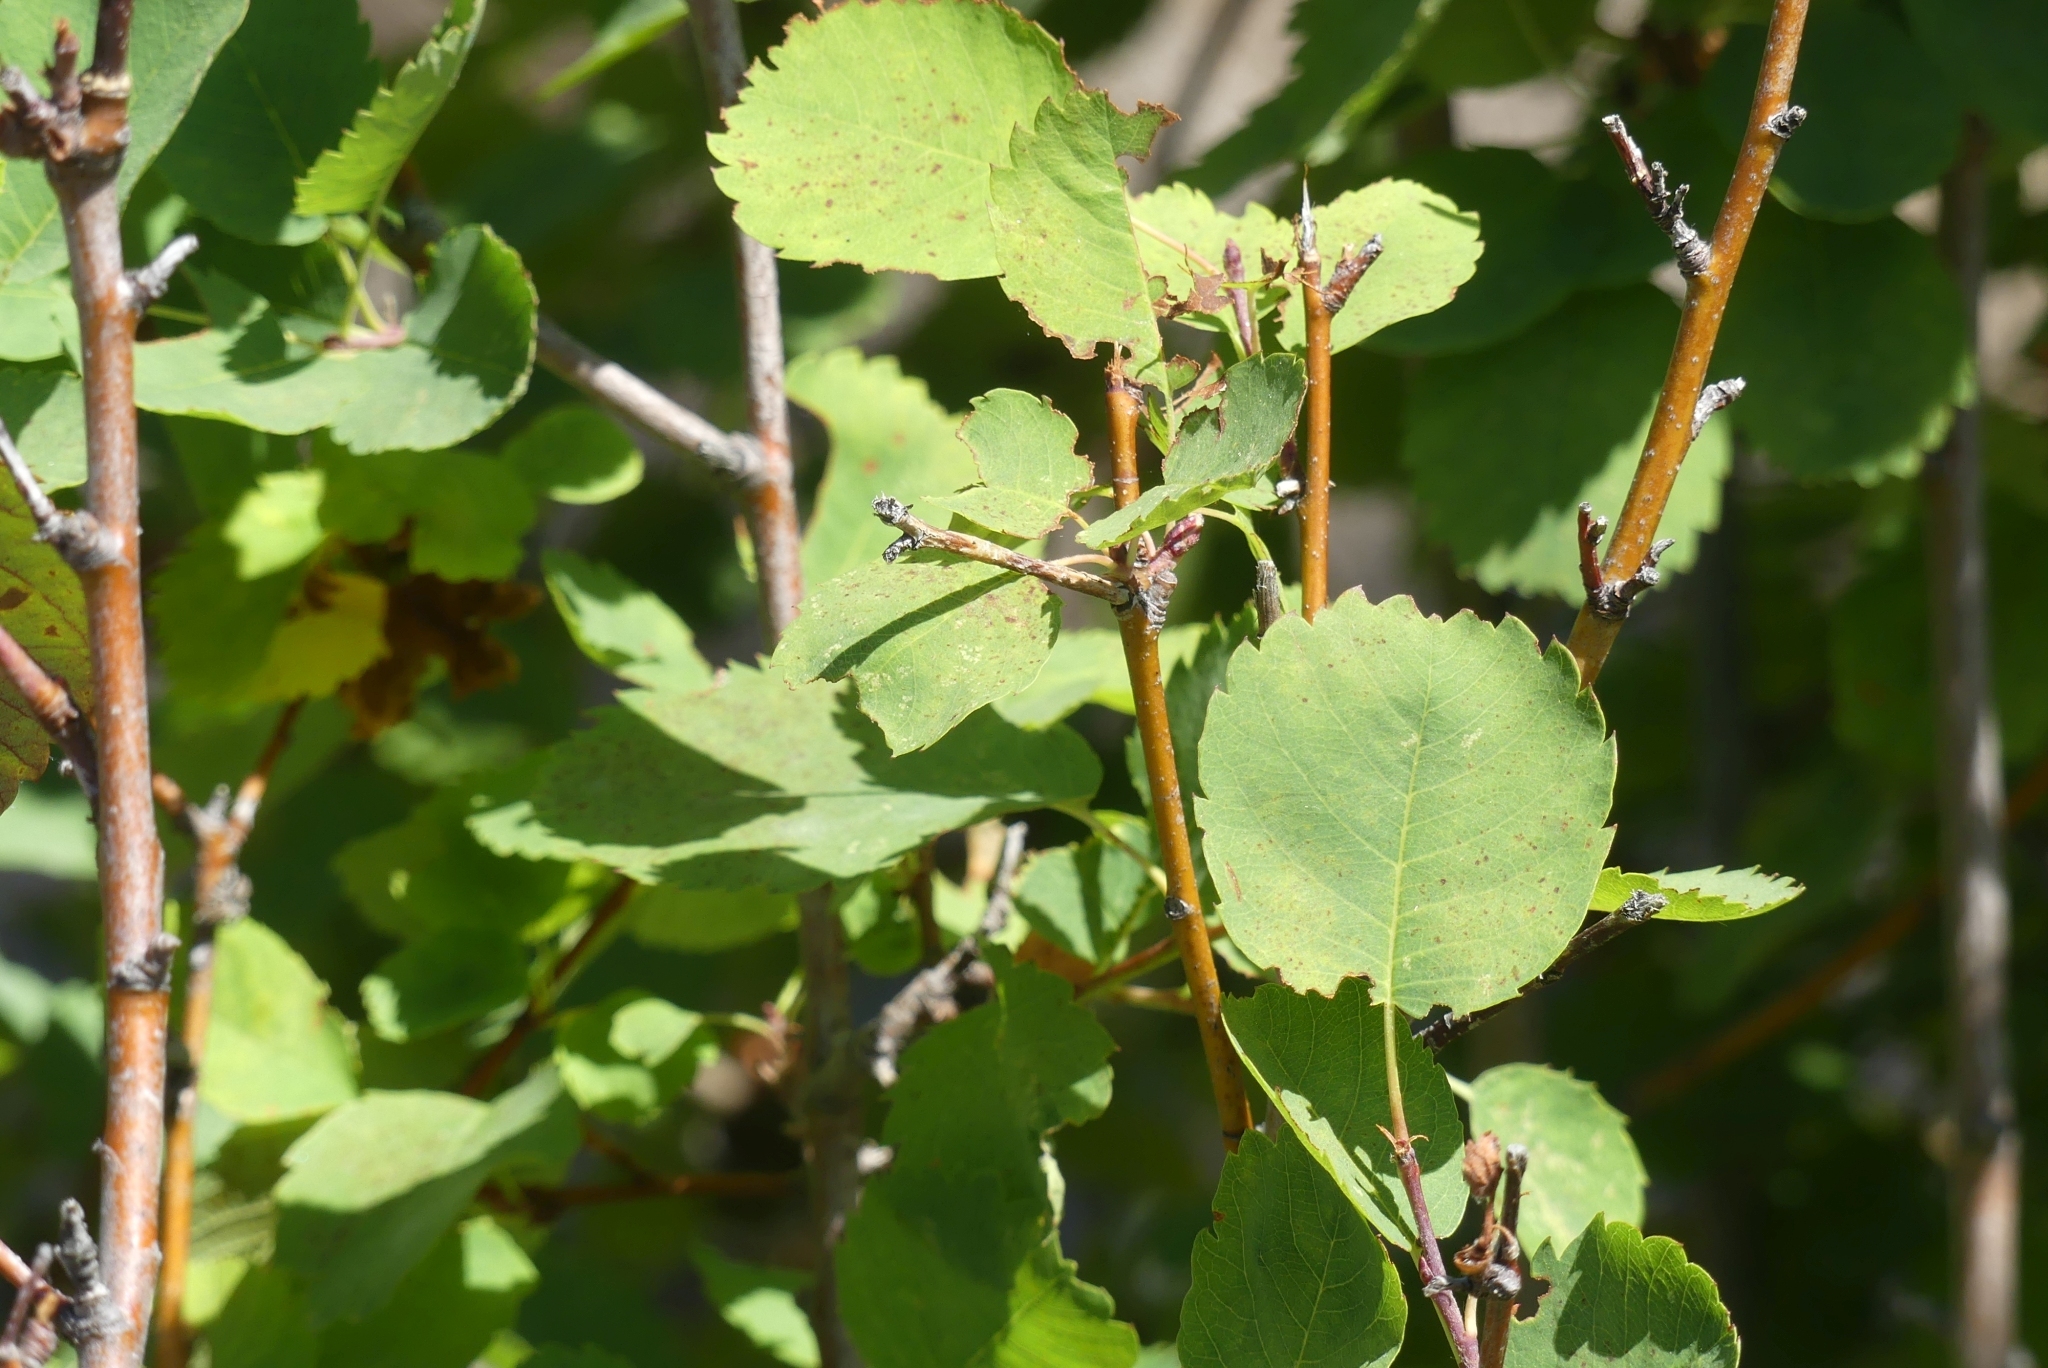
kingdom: Plantae
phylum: Tracheophyta
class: Magnoliopsida
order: Rosales
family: Rosaceae
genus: Amelanchier
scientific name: Amelanchier alnifolia
